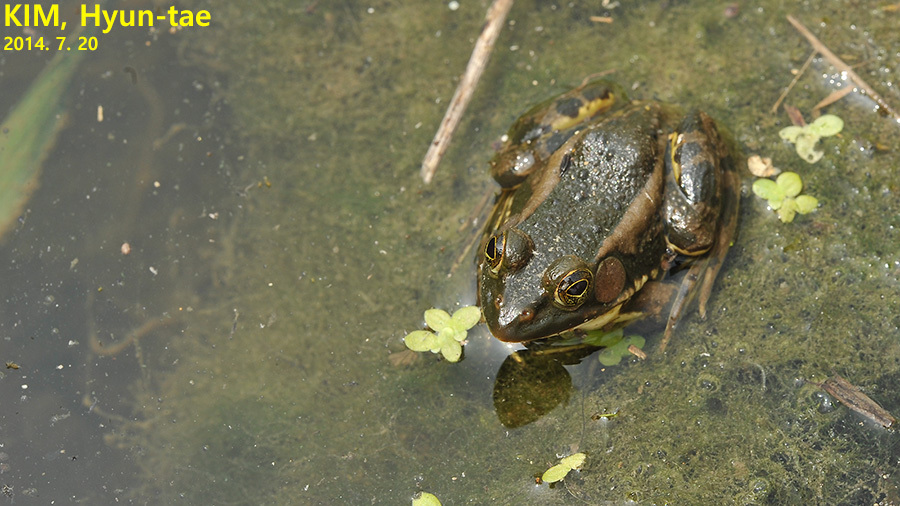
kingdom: Animalia
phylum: Chordata
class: Amphibia
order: Anura
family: Ranidae
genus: Pelophylax
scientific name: Pelophylax chosenicus
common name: Gold-spotted pond frog
